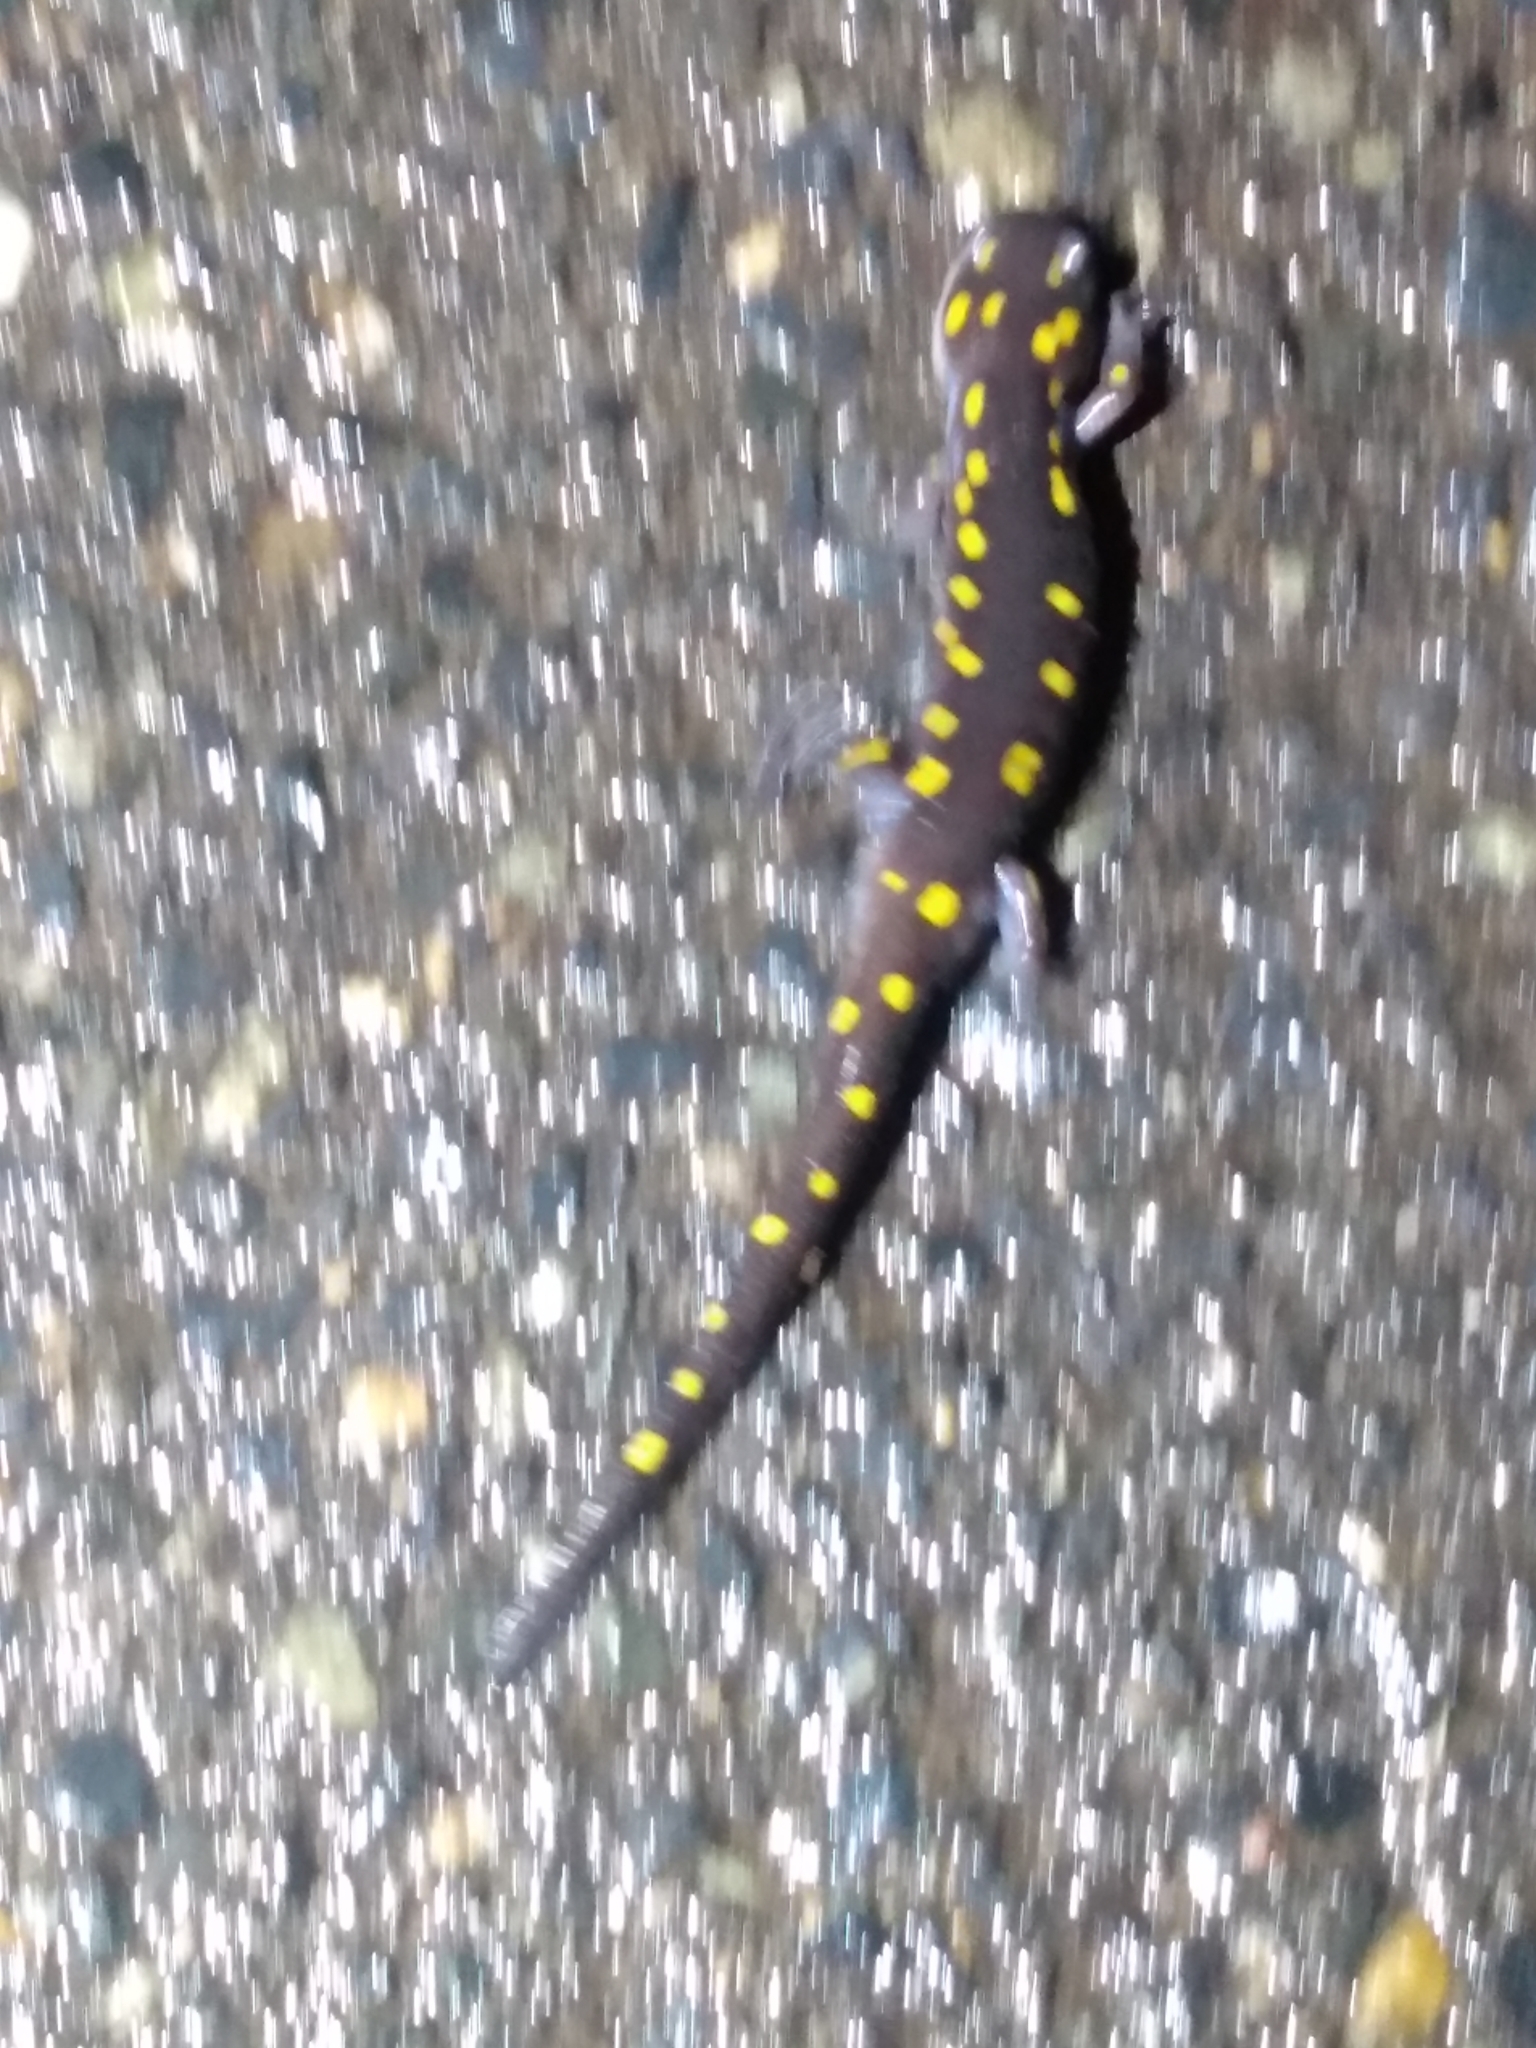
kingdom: Animalia
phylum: Chordata
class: Amphibia
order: Caudata
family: Ambystomatidae
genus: Ambystoma
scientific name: Ambystoma maculatum
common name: Spotted salamander
